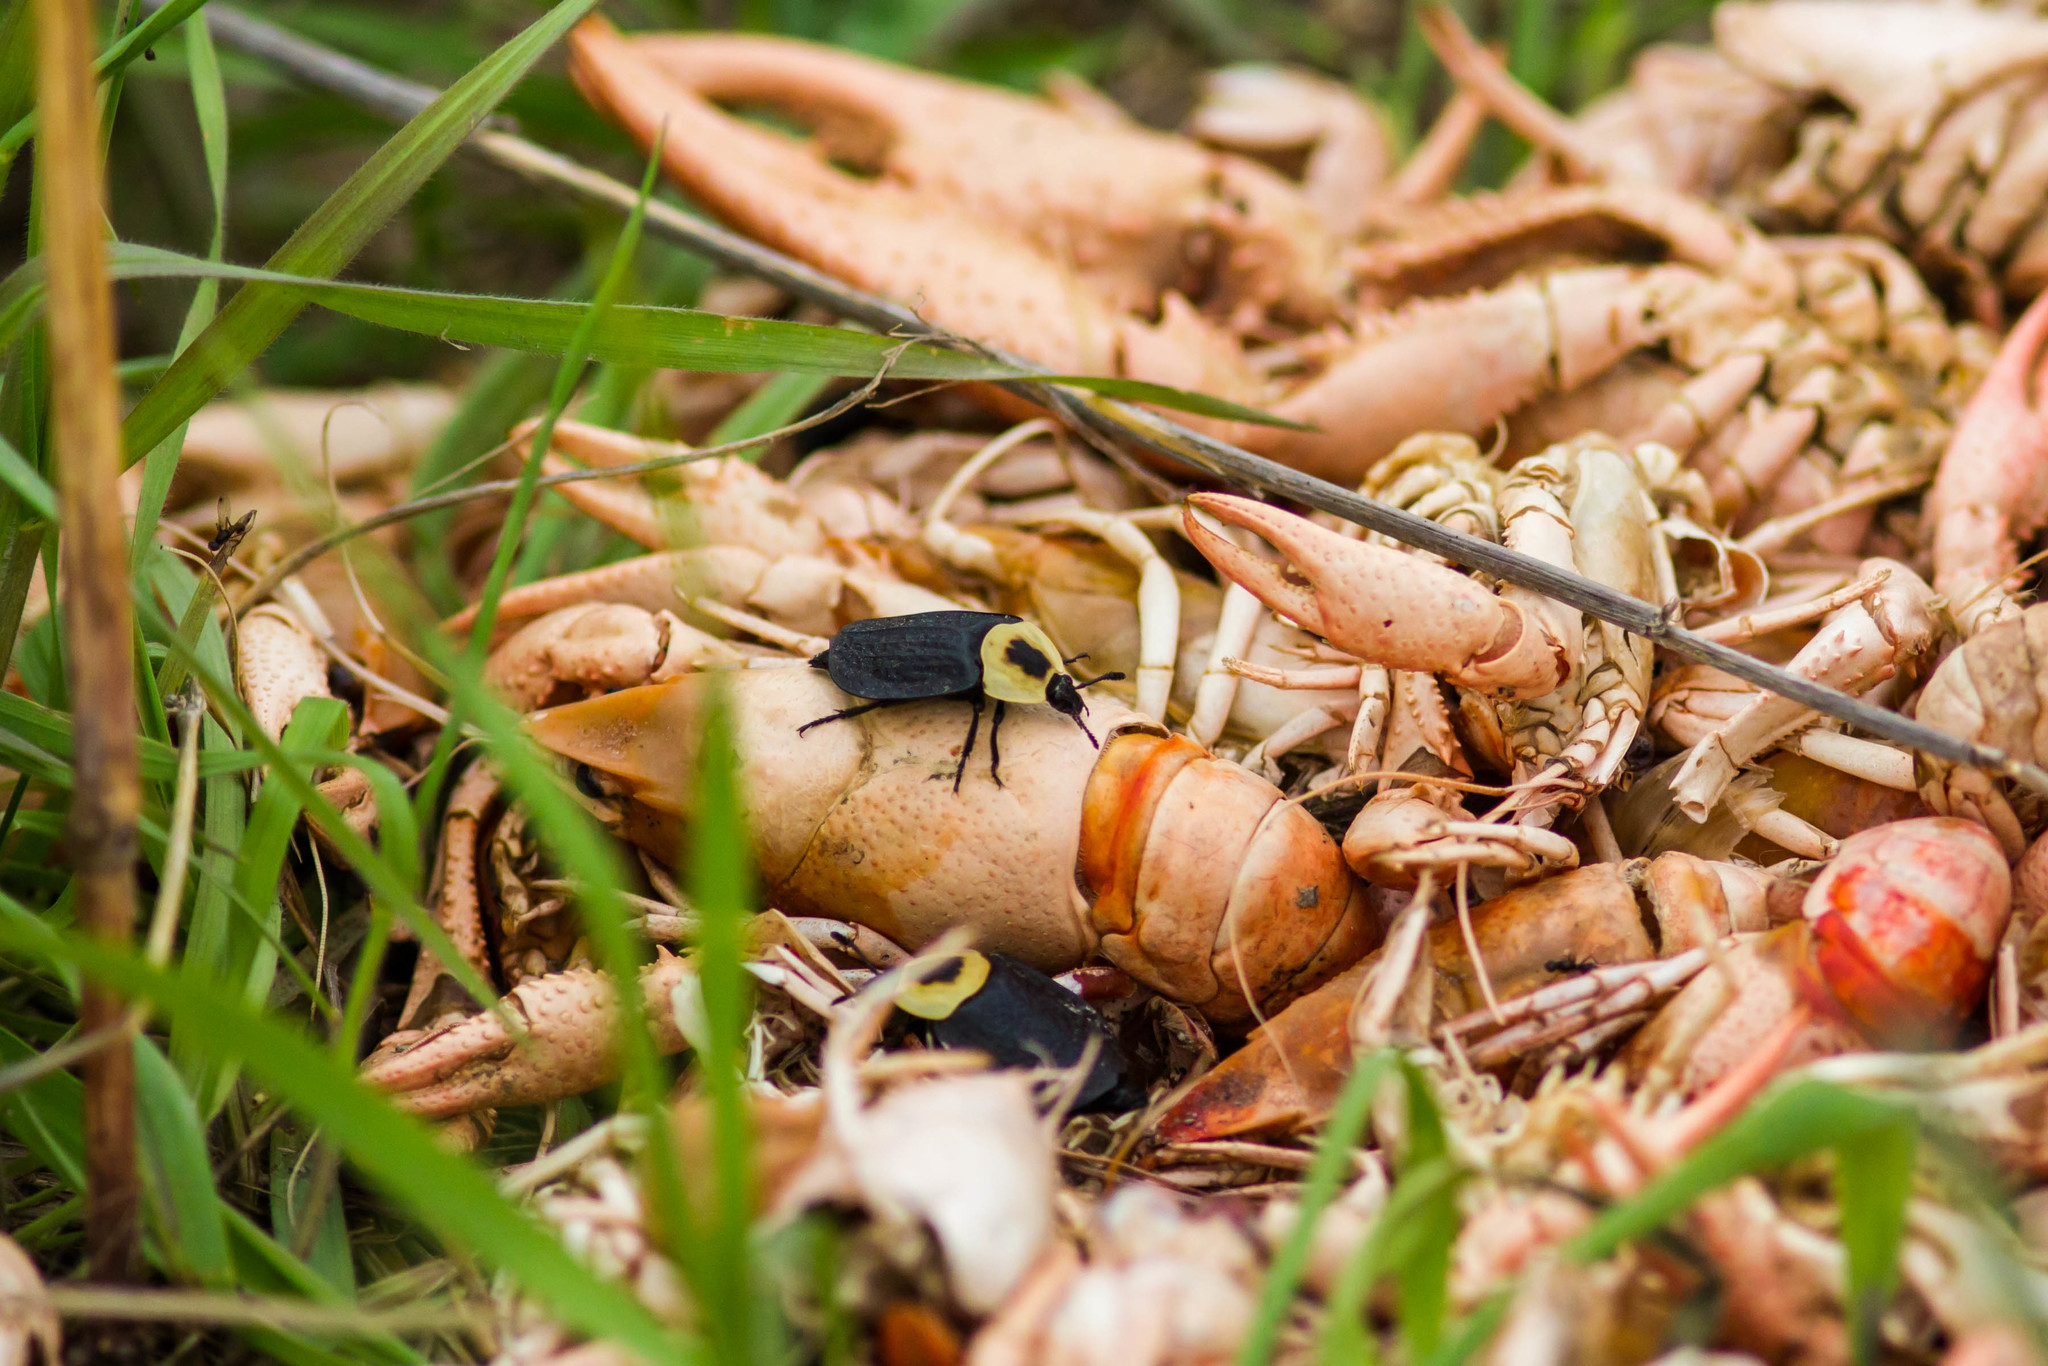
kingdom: Animalia
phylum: Arthropoda
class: Insecta
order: Coleoptera
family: Staphylinidae
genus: Necrophila
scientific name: Necrophila americana
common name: American carrion beetle
